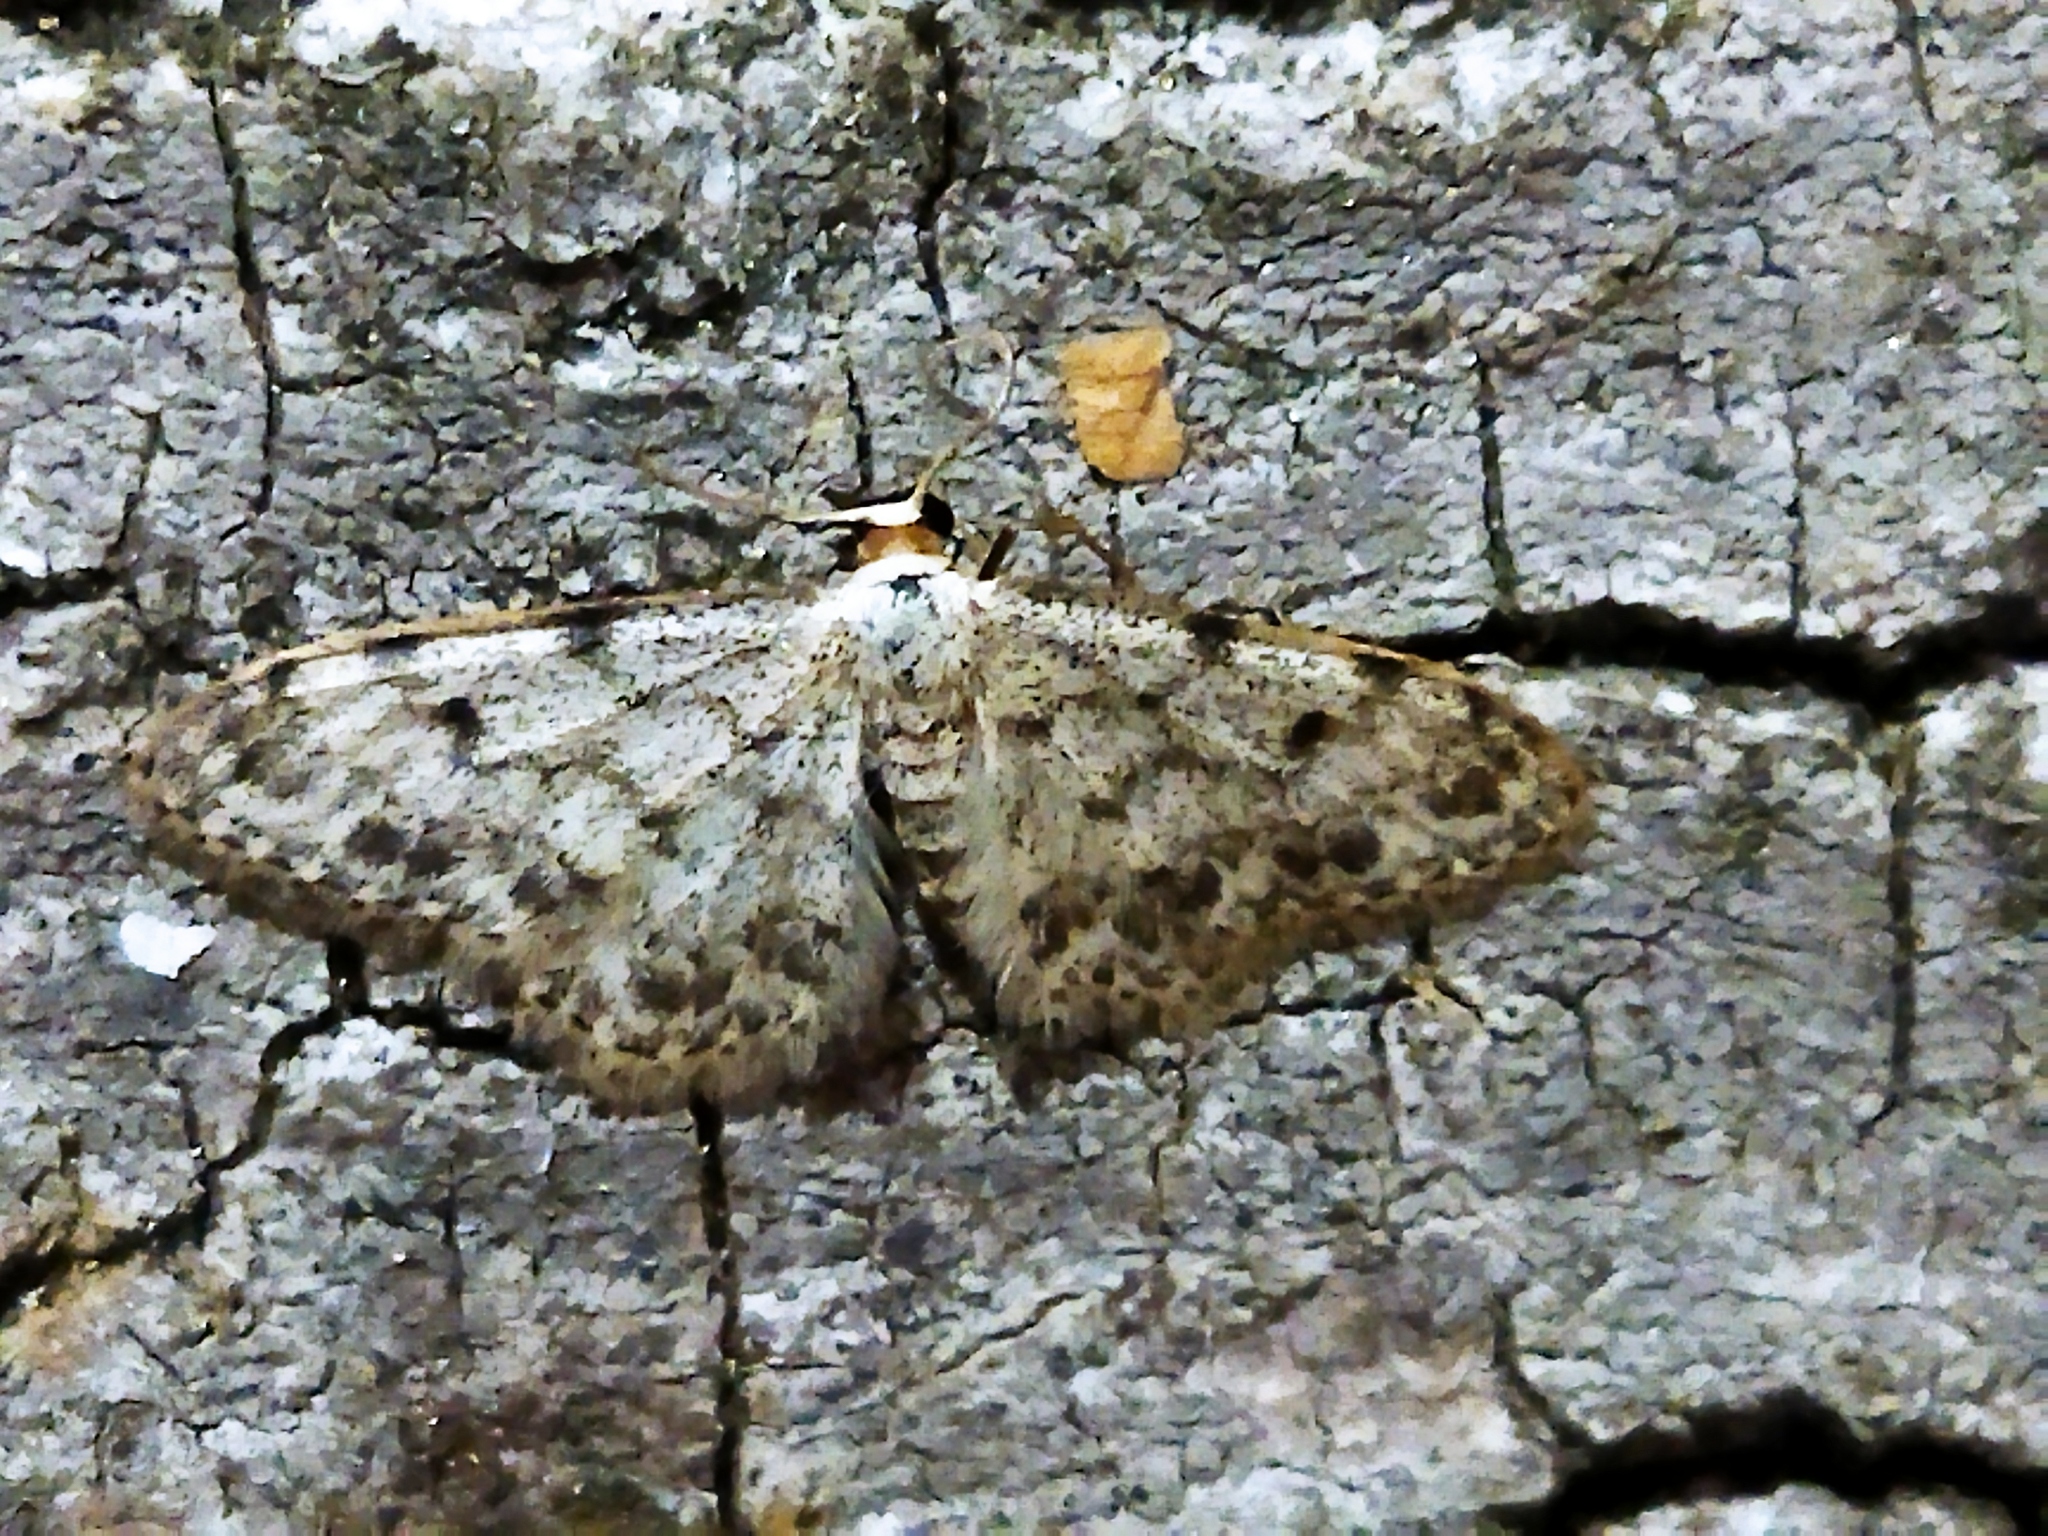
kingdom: Animalia
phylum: Arthropoda
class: Insecta
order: Lepidoptera
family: Geometridae
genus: Idaea
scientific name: Idaea camparia
